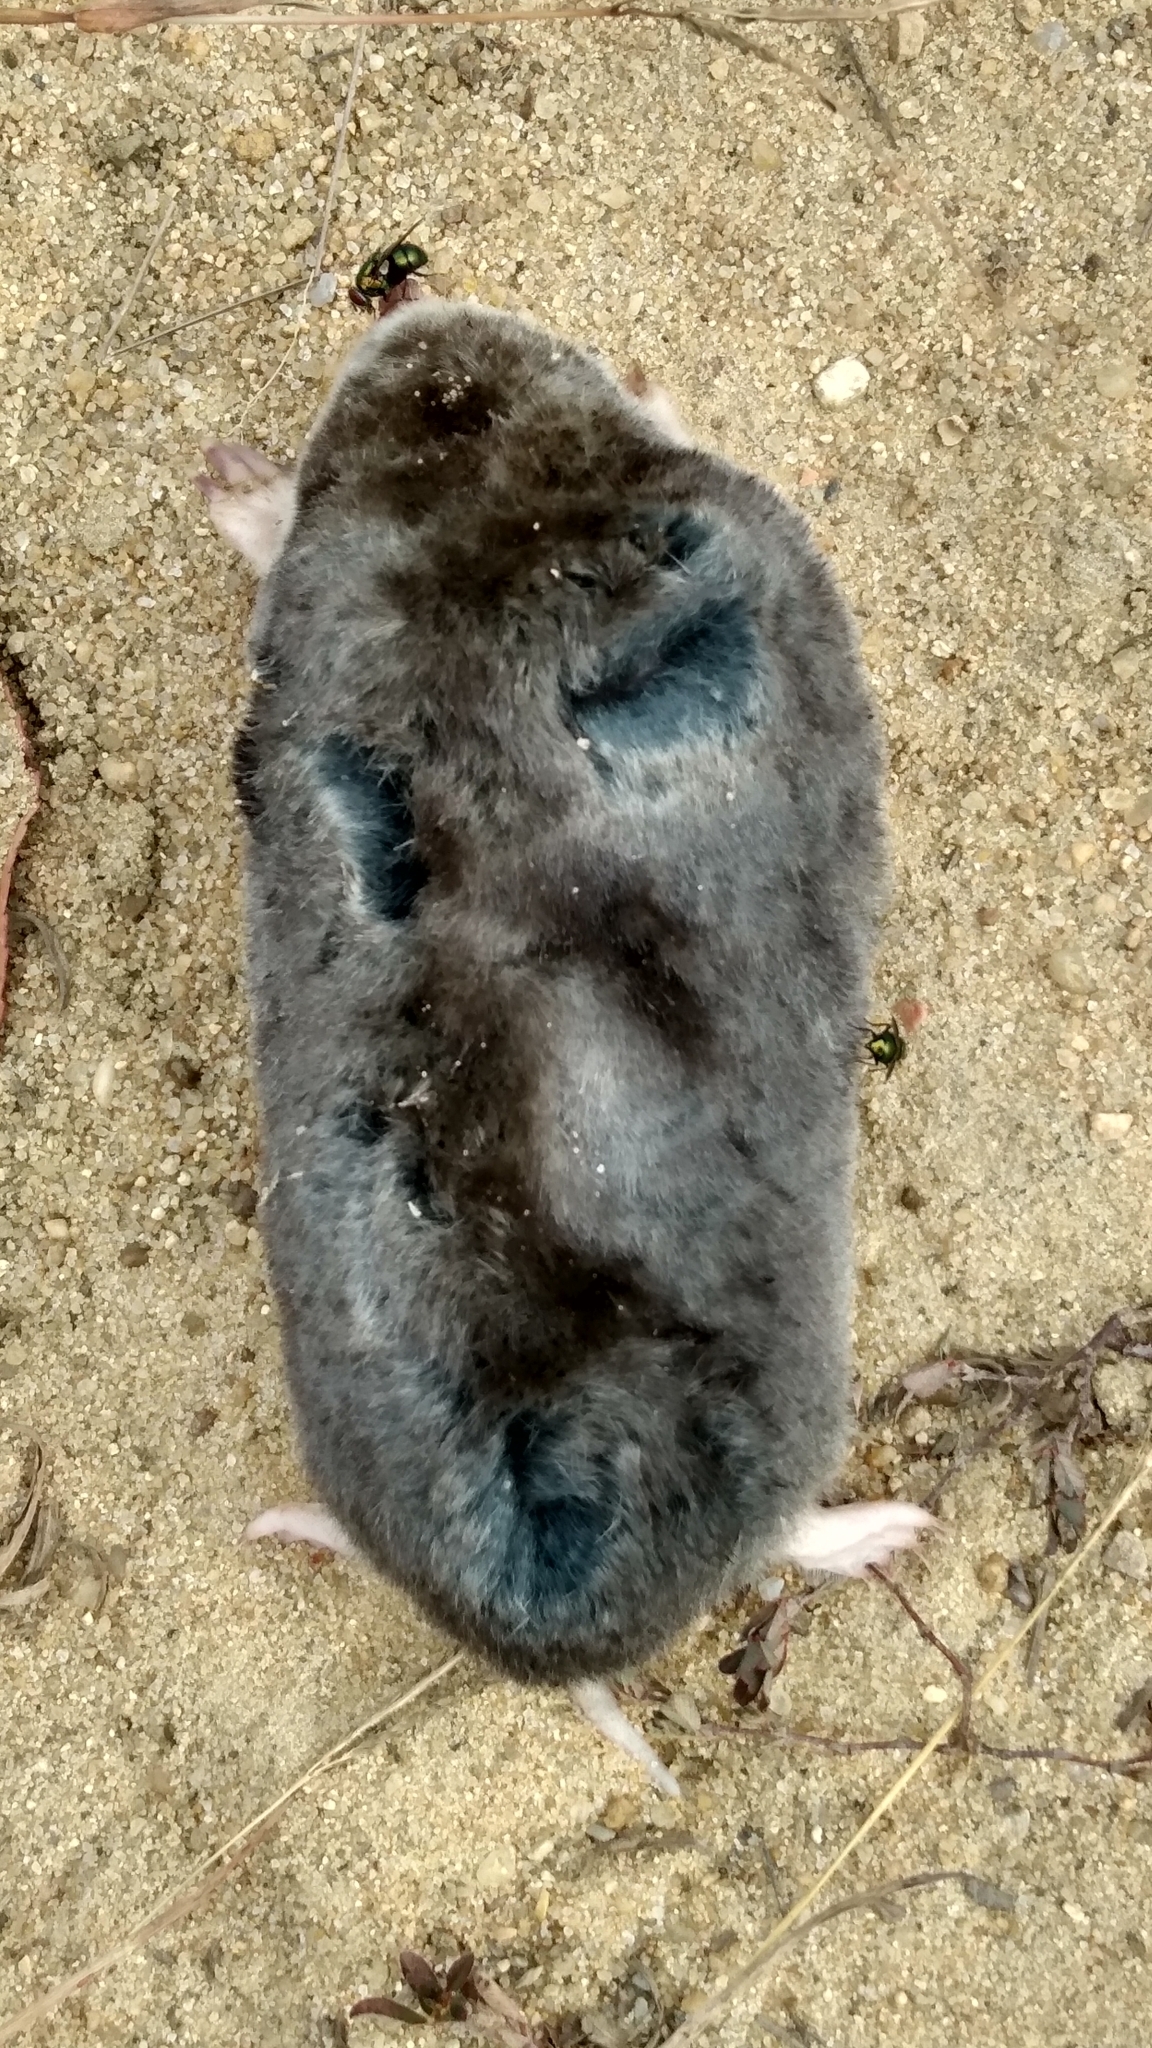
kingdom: Animalia
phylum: Chordata
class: Mammalia
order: Soricomorpha
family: Talpidae
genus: Scalopus
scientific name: Scalopus aquaticus
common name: Eastern mole
